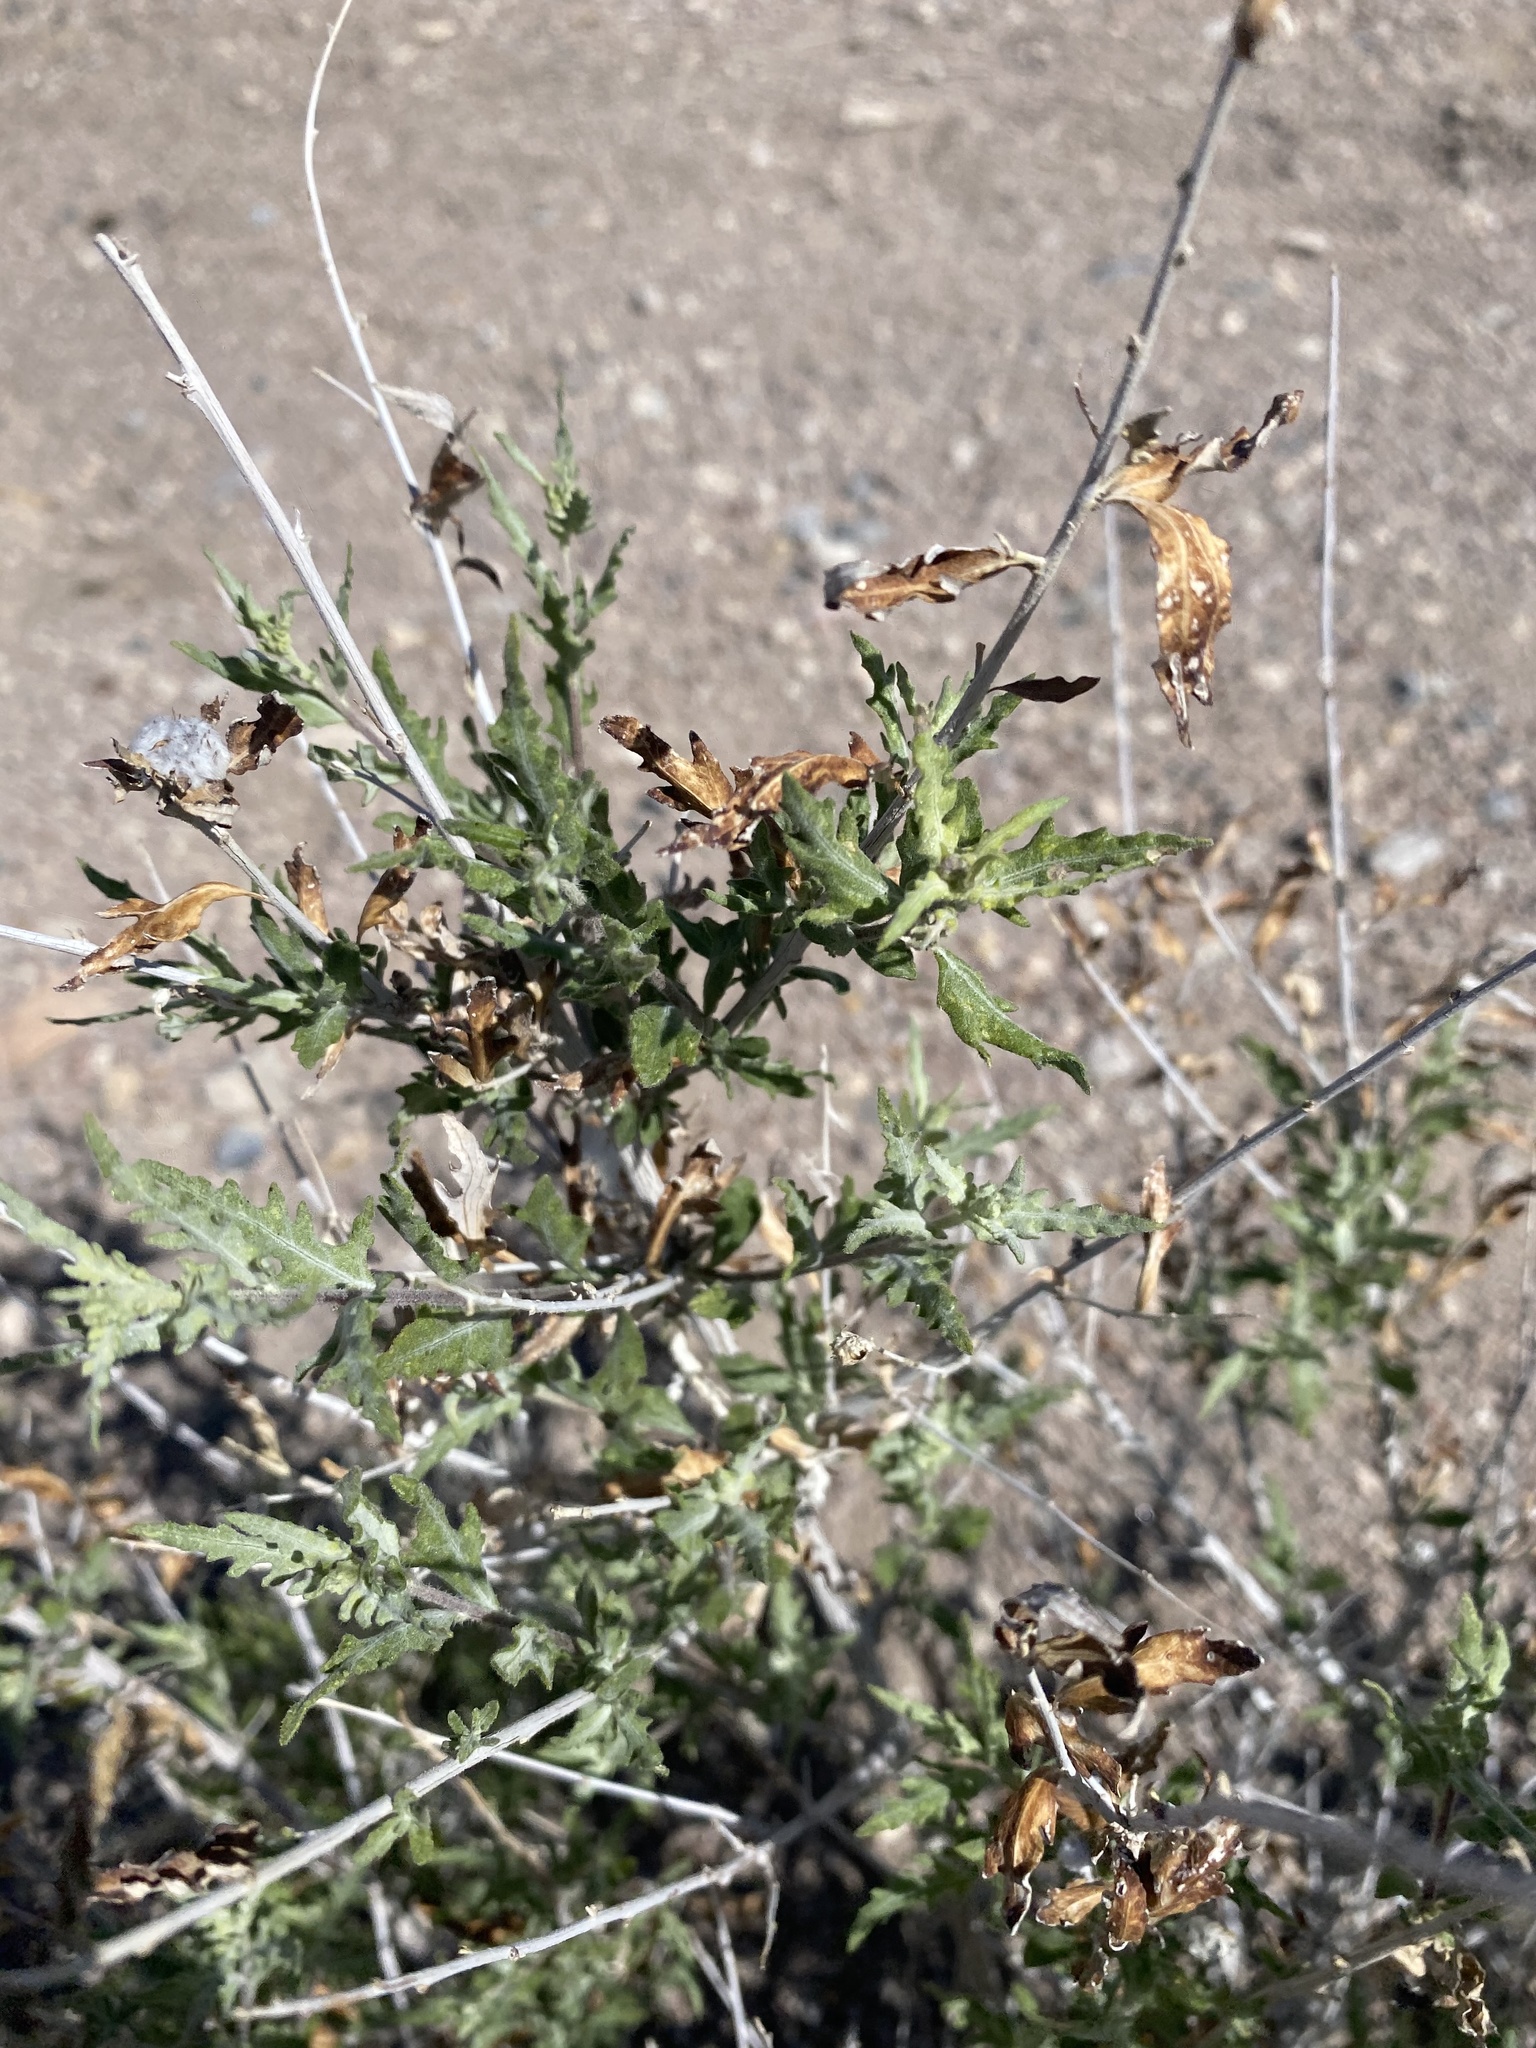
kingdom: Plantae
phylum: Tracheophyta
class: Magnoliopsida
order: Asterales
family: Asteraceae
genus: Ambrosia
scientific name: Ambrosia eriocentra
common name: Woolly bur-sage
